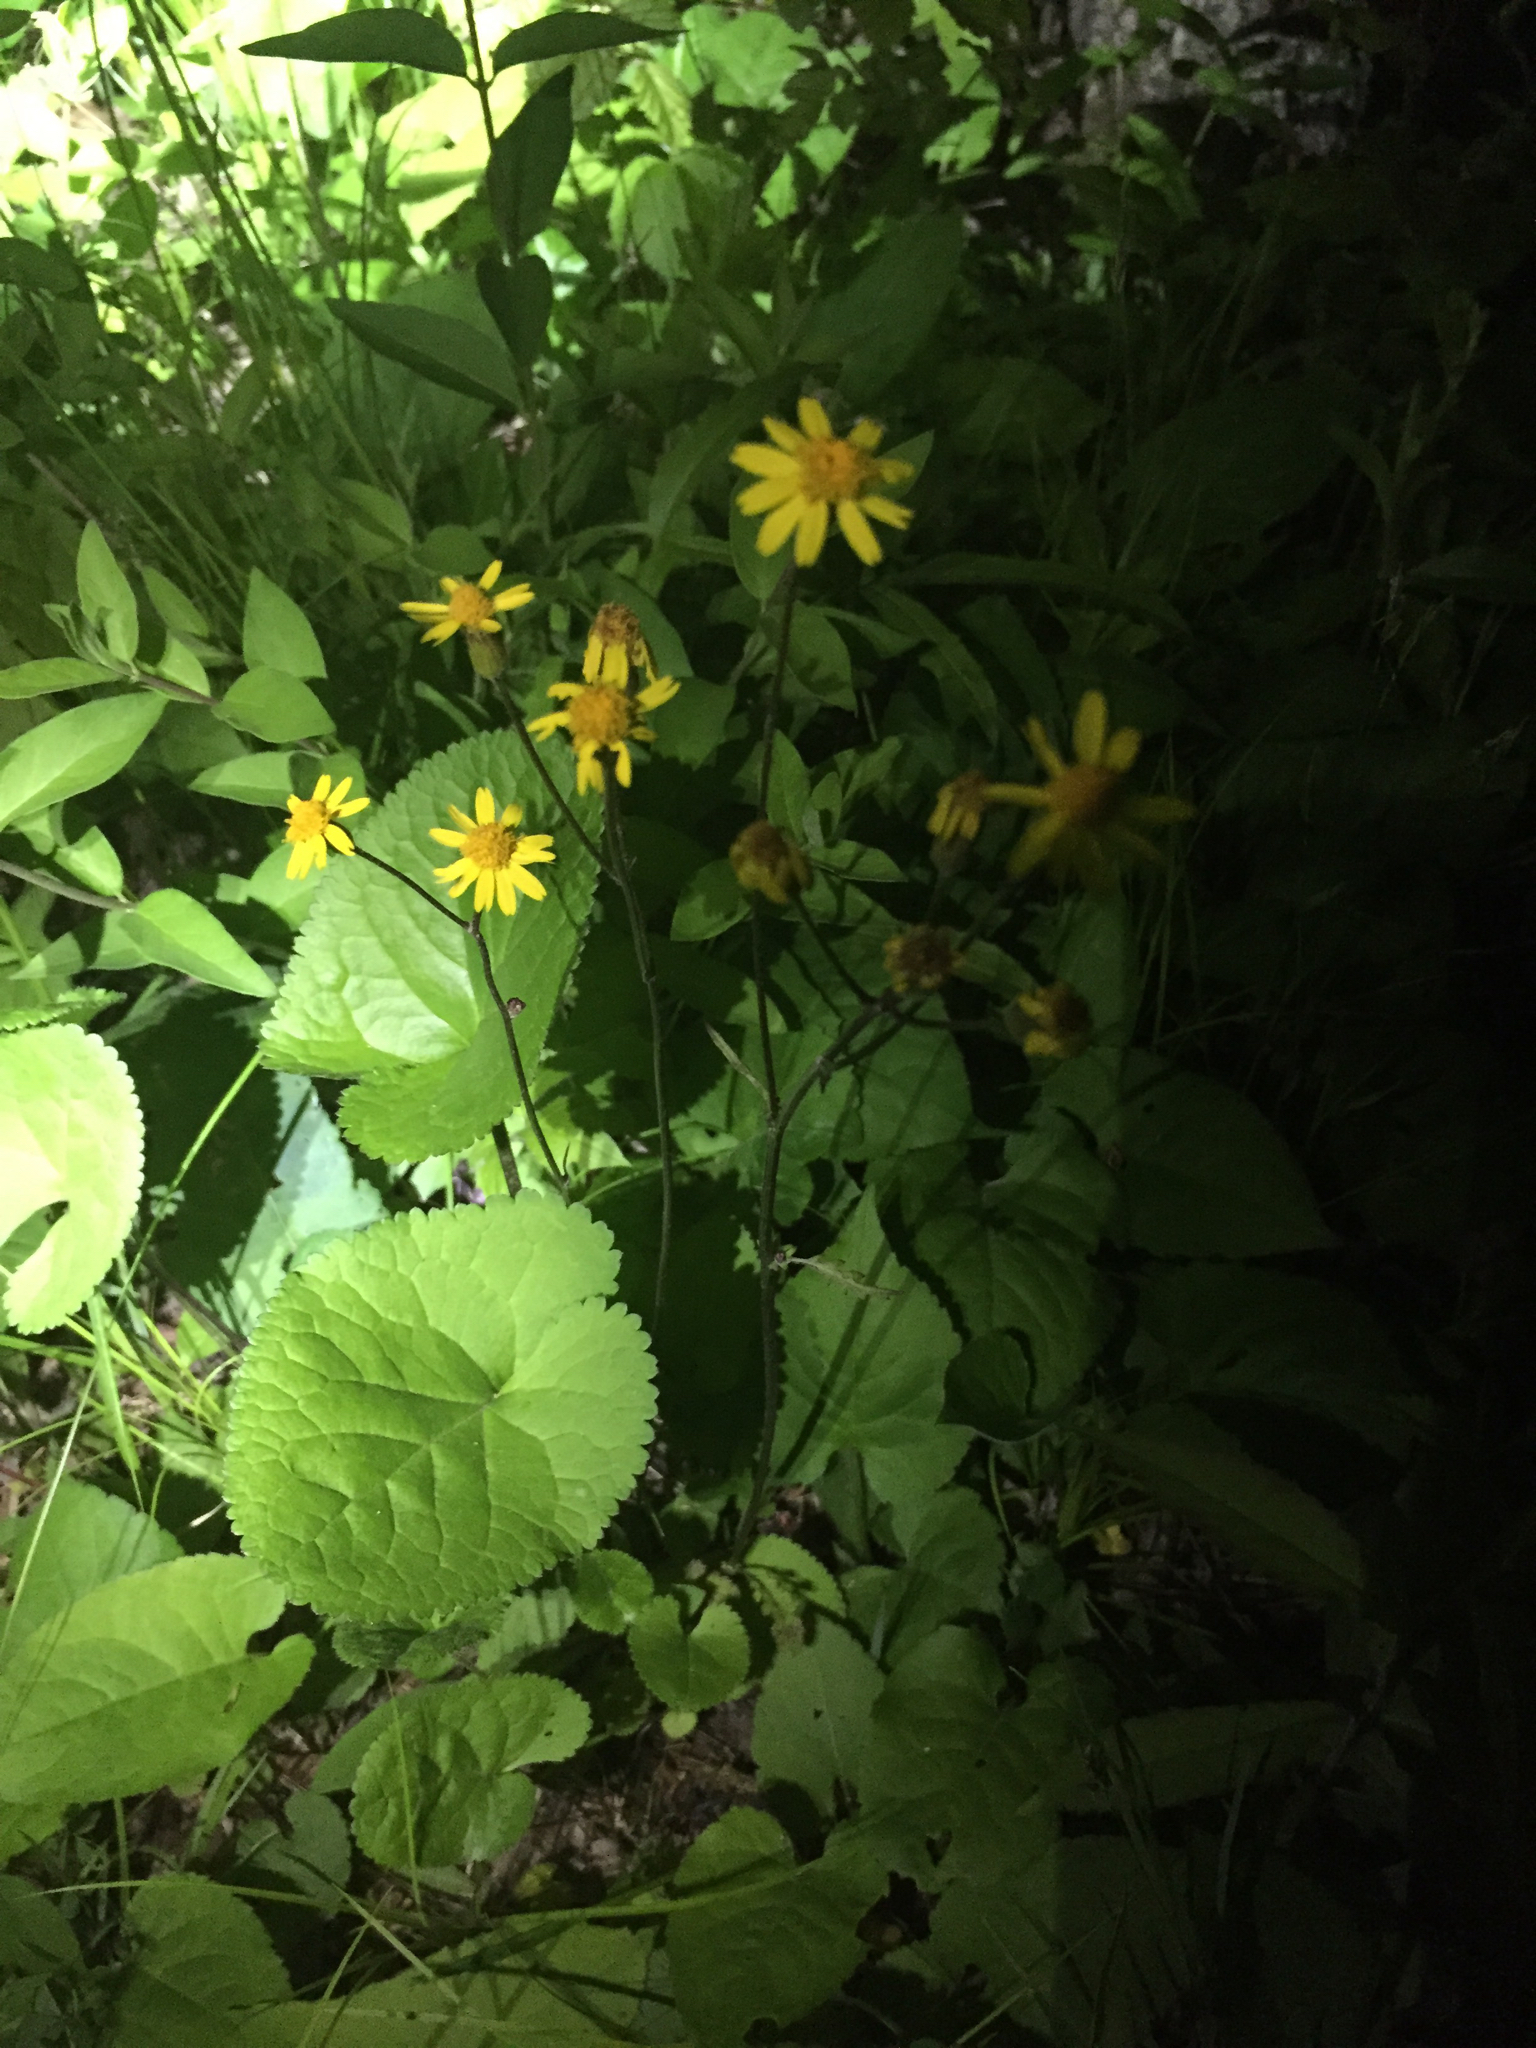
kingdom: Plantae
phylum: Tracheophyta
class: Magnoliopsida
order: Asterales
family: Asteraceae
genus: Packera
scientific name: Packera aurea
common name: Golden groundsel
